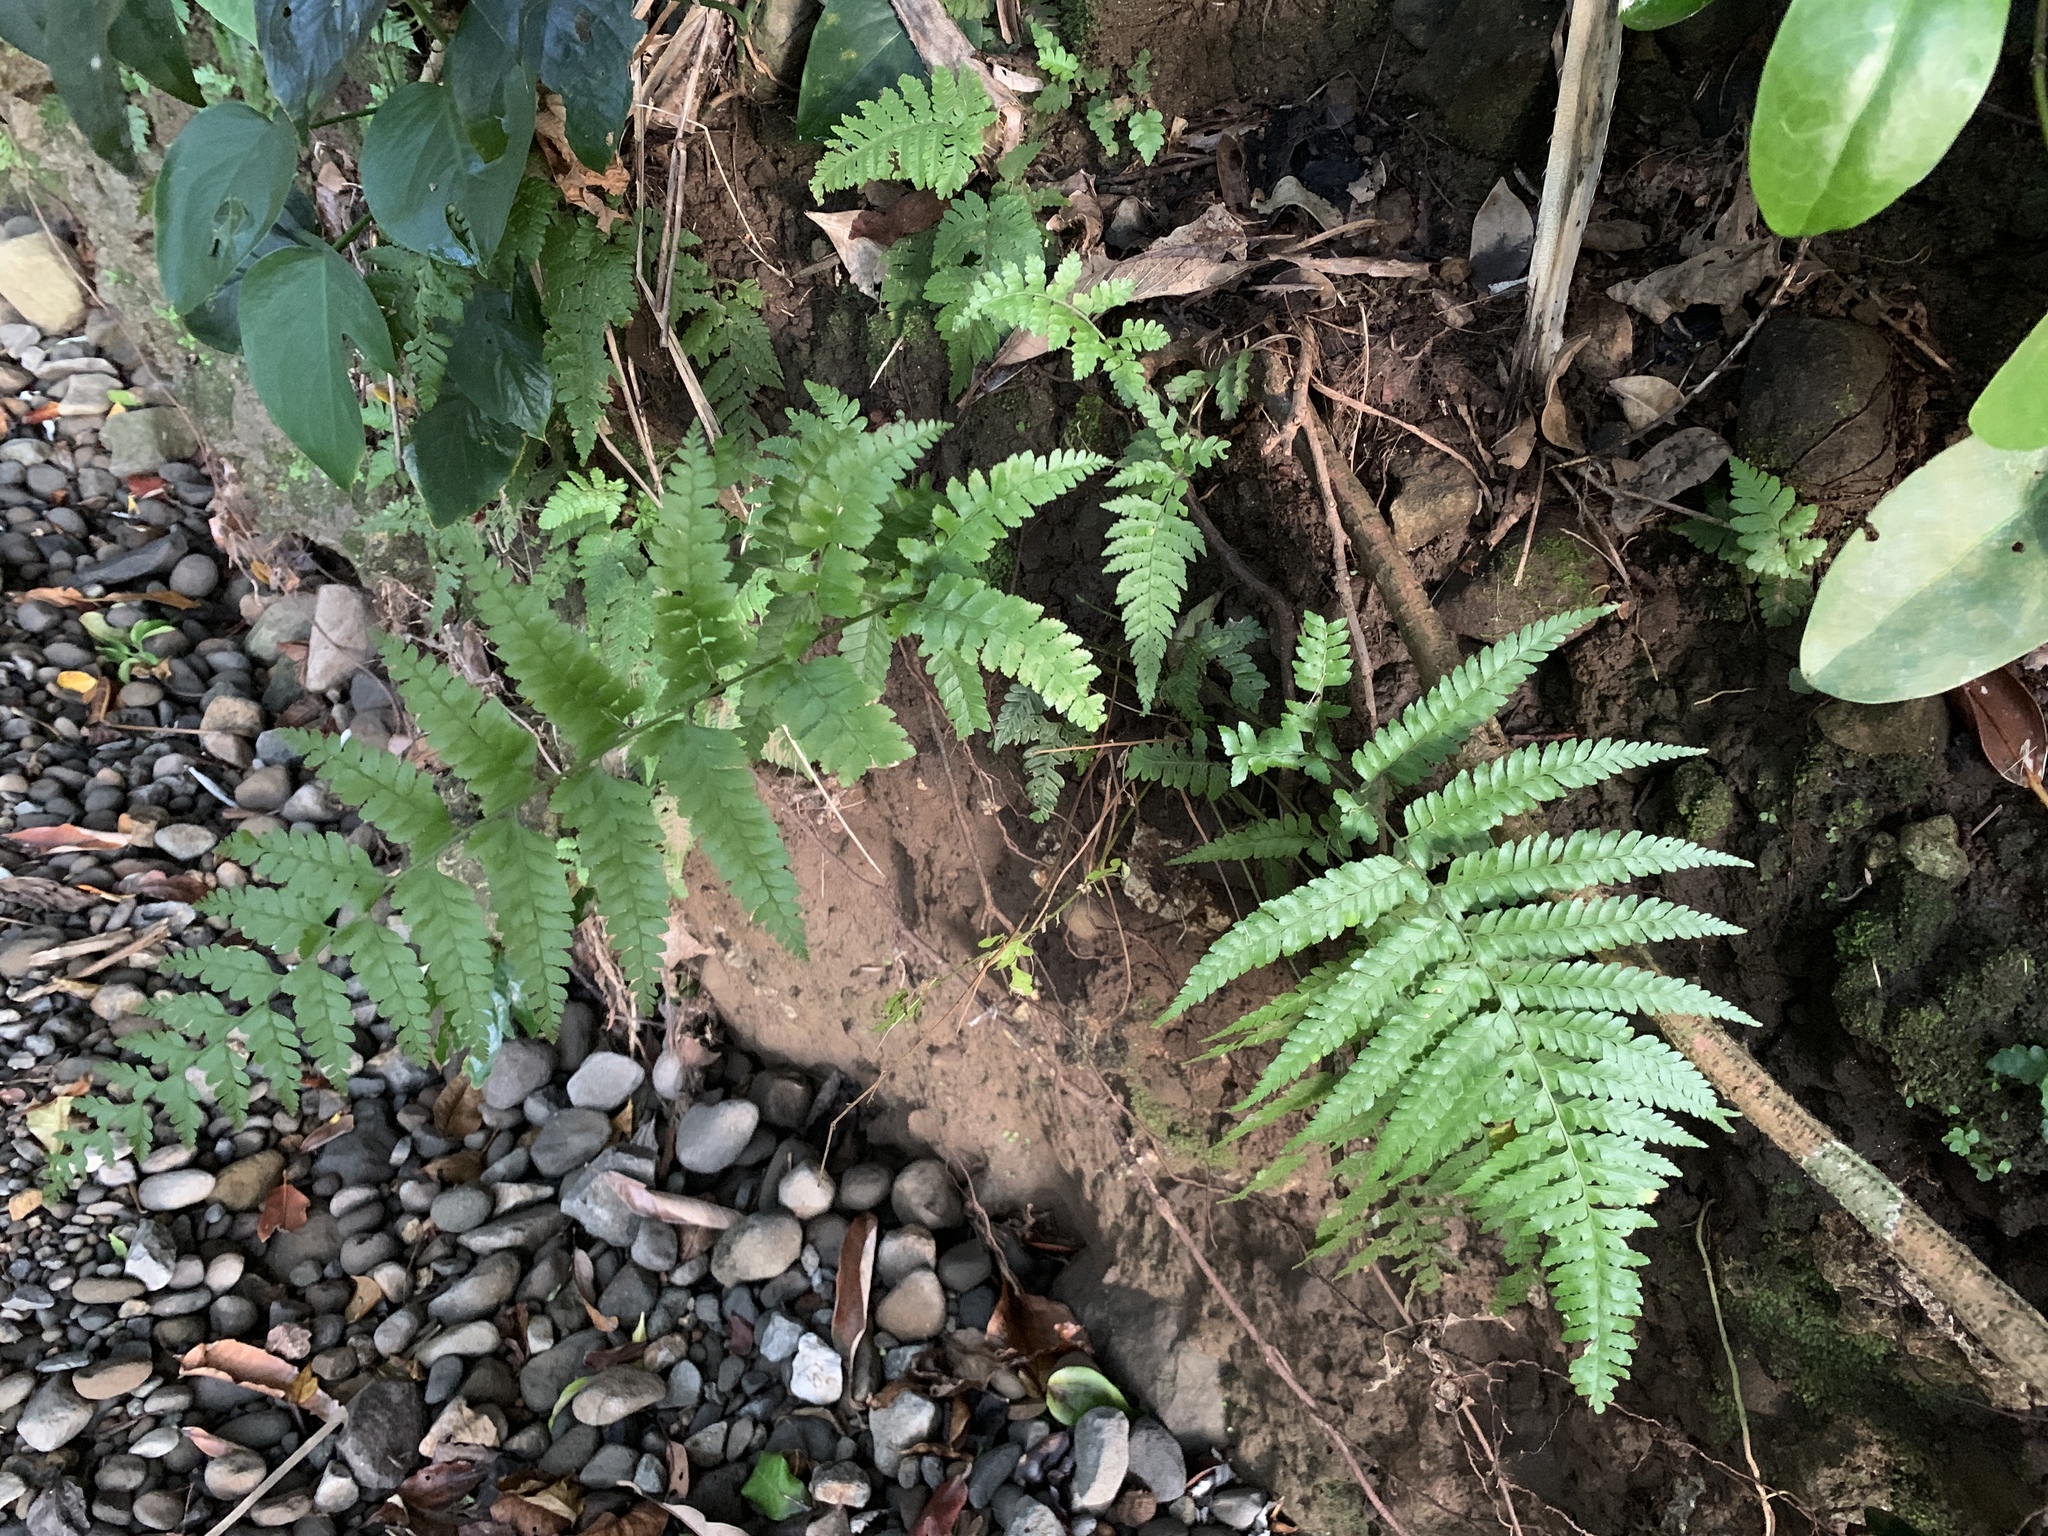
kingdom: Plantae
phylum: Tracheophyta
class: Polypodiopsida
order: Polypodiales
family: Dennstaedtiaceae
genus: Microlepia
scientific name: Microlepia strigosa
